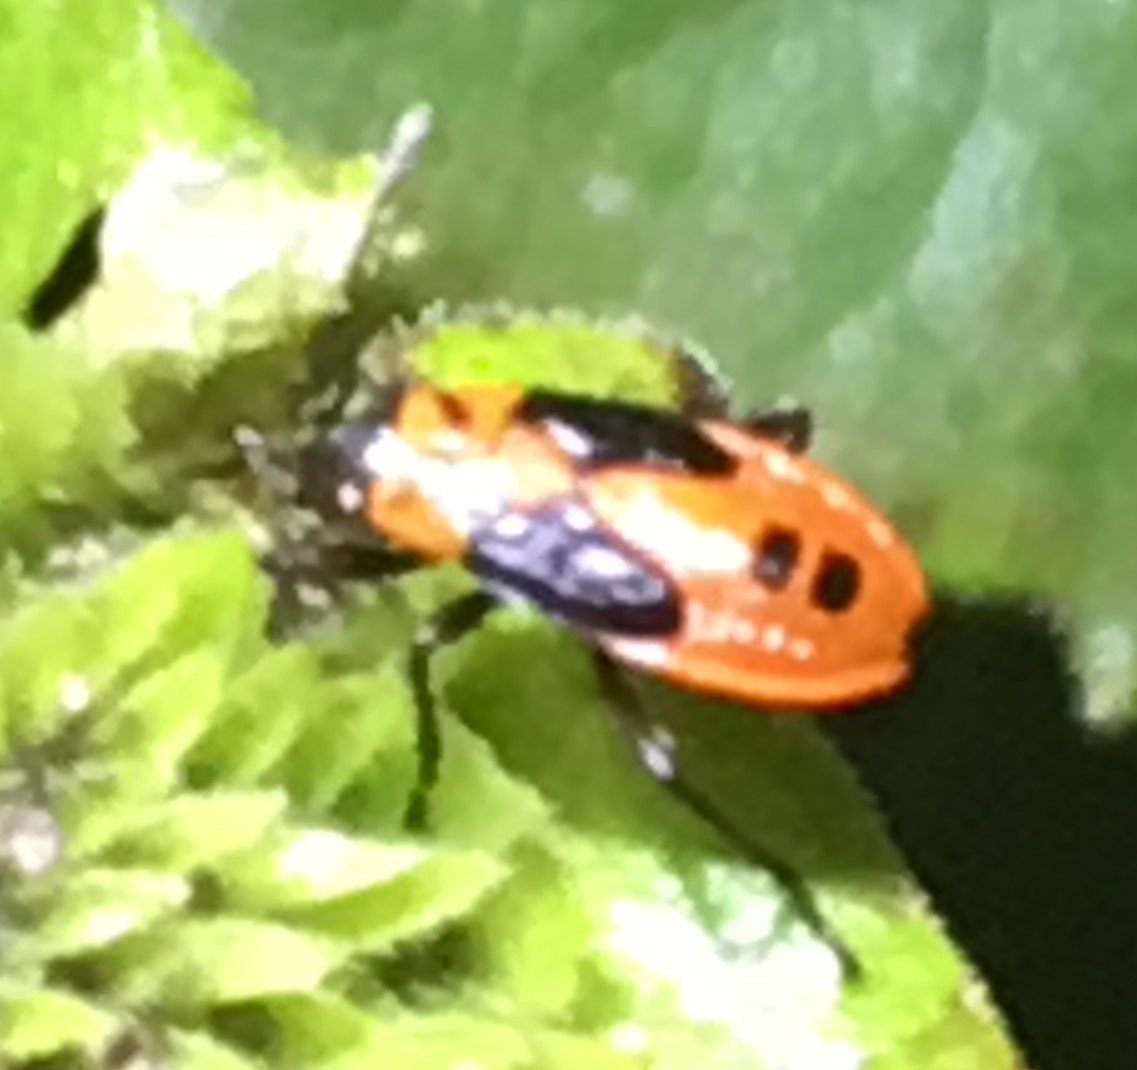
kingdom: Animalia
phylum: Arthropoda
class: Insecta
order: Hemiptera
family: Lygaeidae
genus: Lygaeus
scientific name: Lygaeus turcicus
